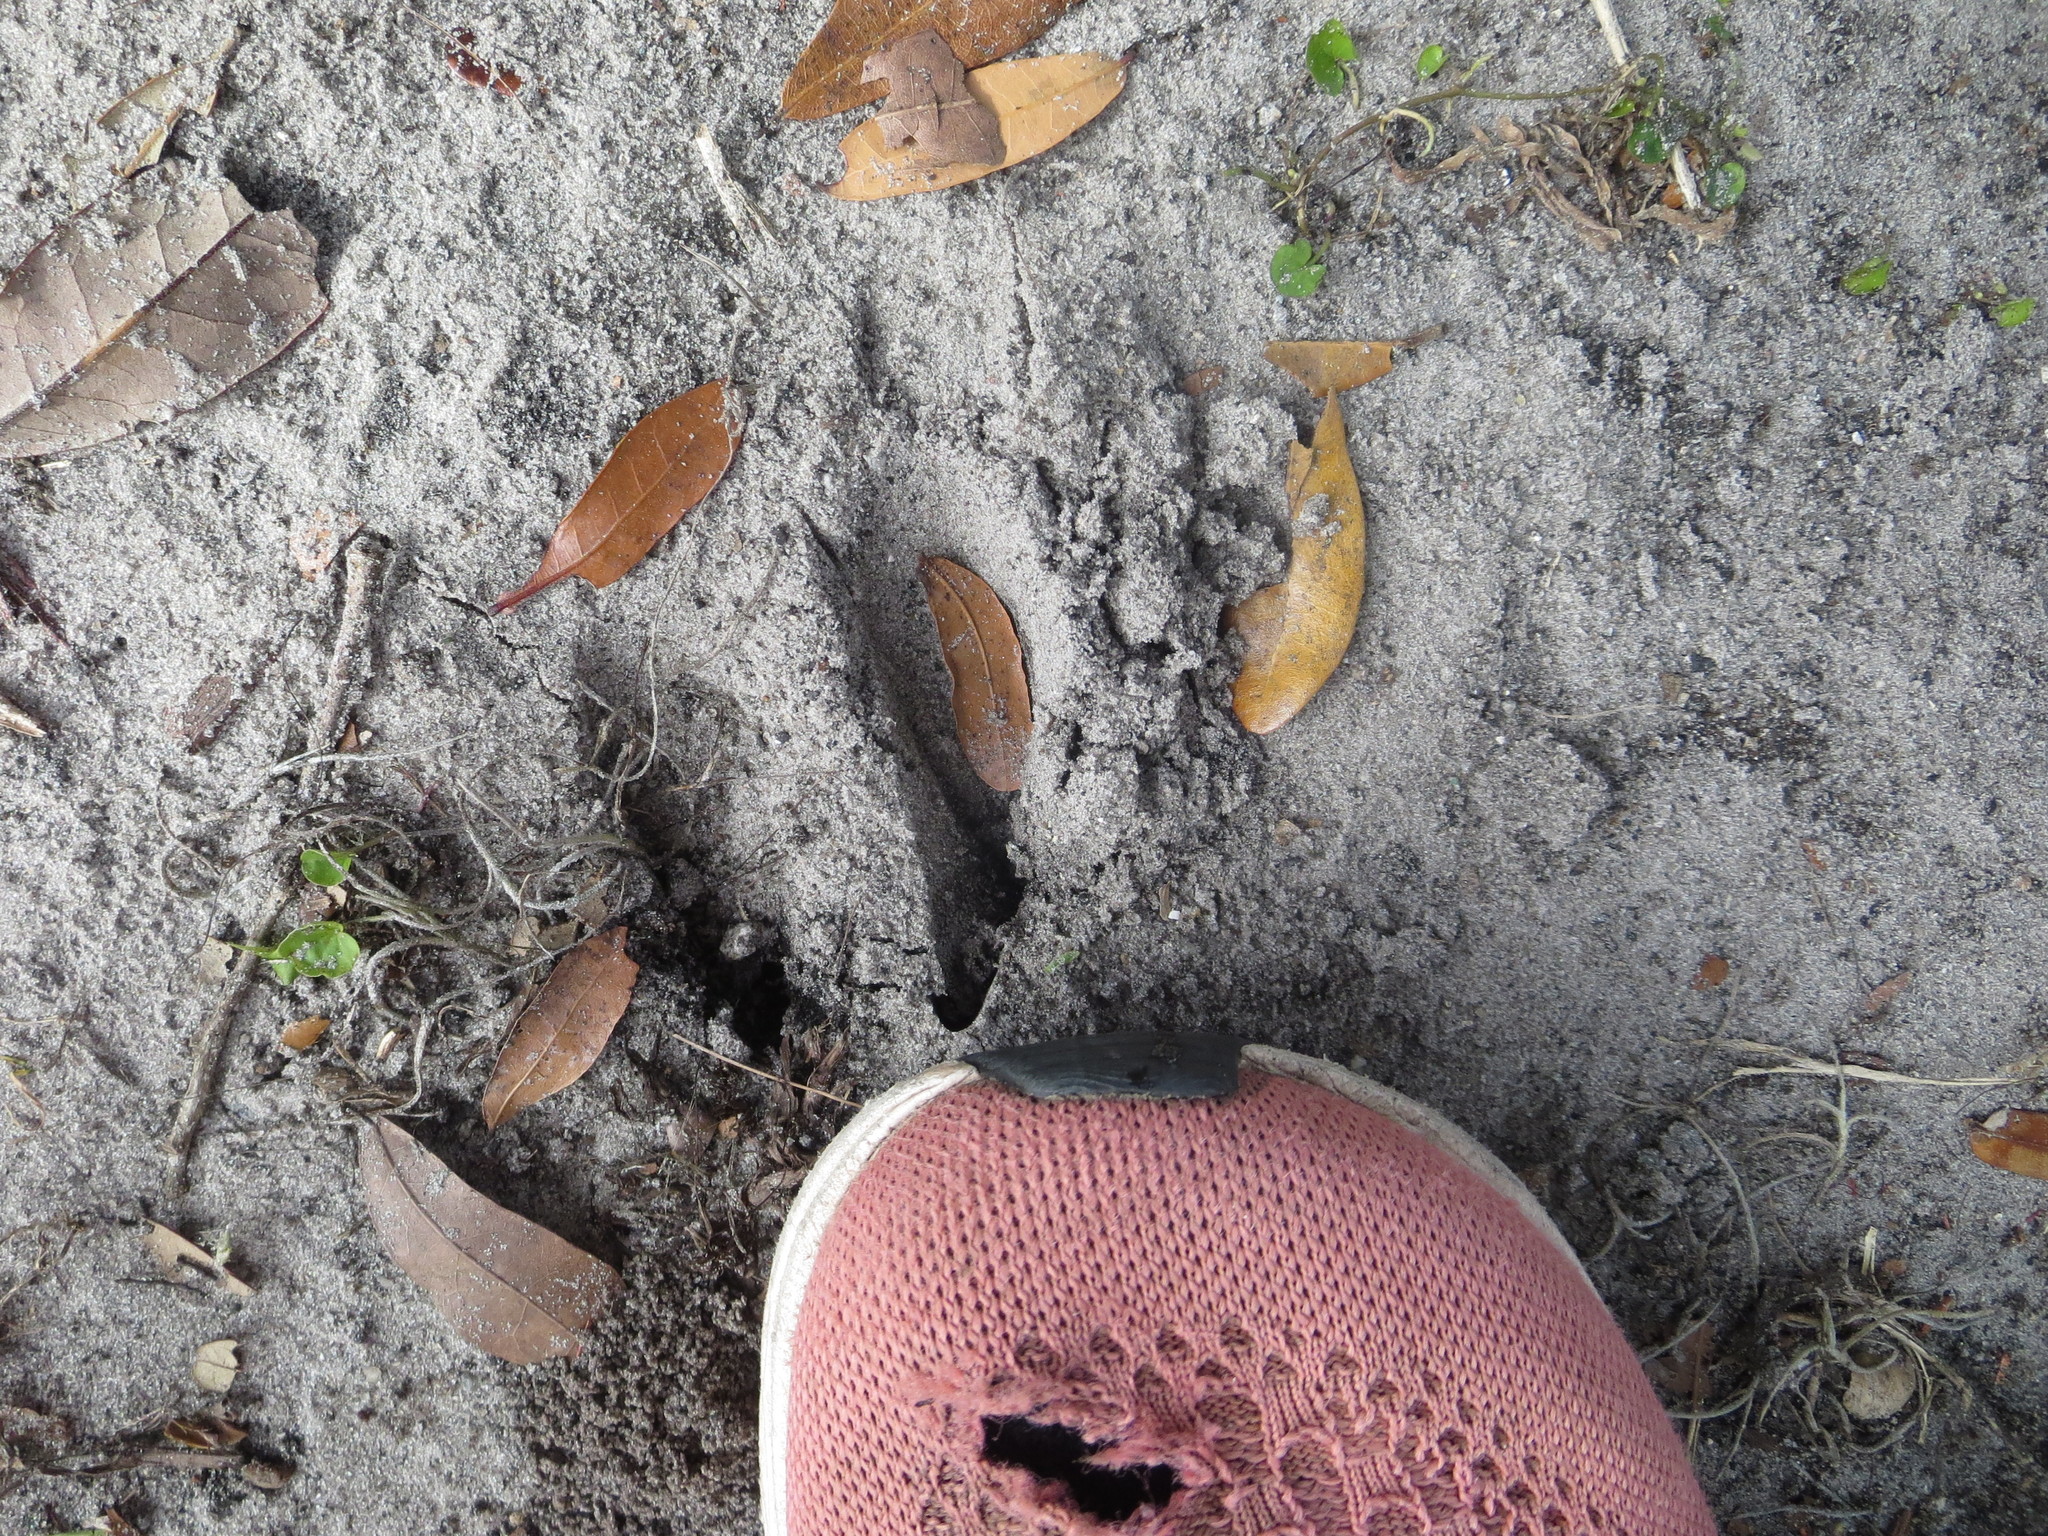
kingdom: Animalia
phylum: Chordata
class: Mammalia
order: Artiodactyla
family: Cervidae
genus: Odocoileus
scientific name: Odocoileus virginianus
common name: White-tailed deer
